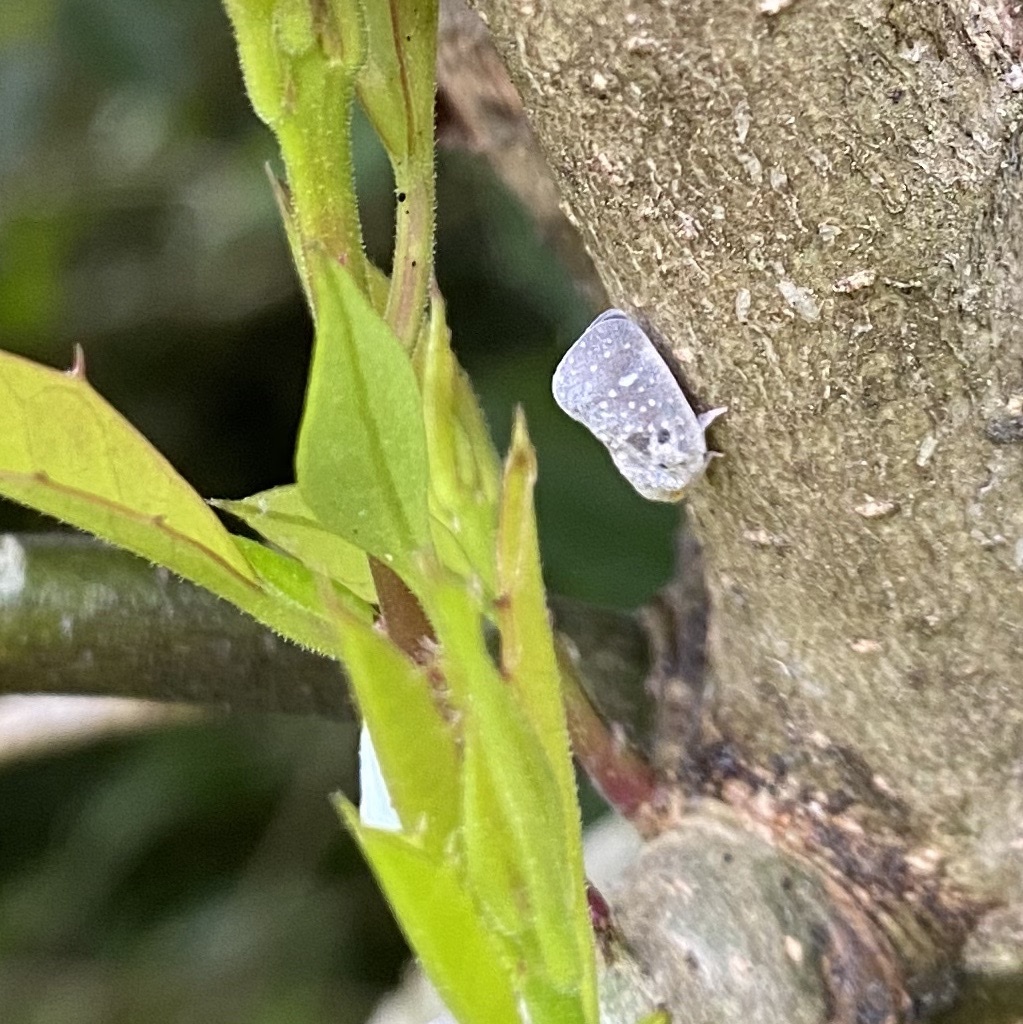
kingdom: Animalia
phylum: Arthropoda
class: Insecta
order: Hemiptera
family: Flatidae
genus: Metcalfa
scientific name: Metcalfa pruinosa
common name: Citrus flatid planthopper
